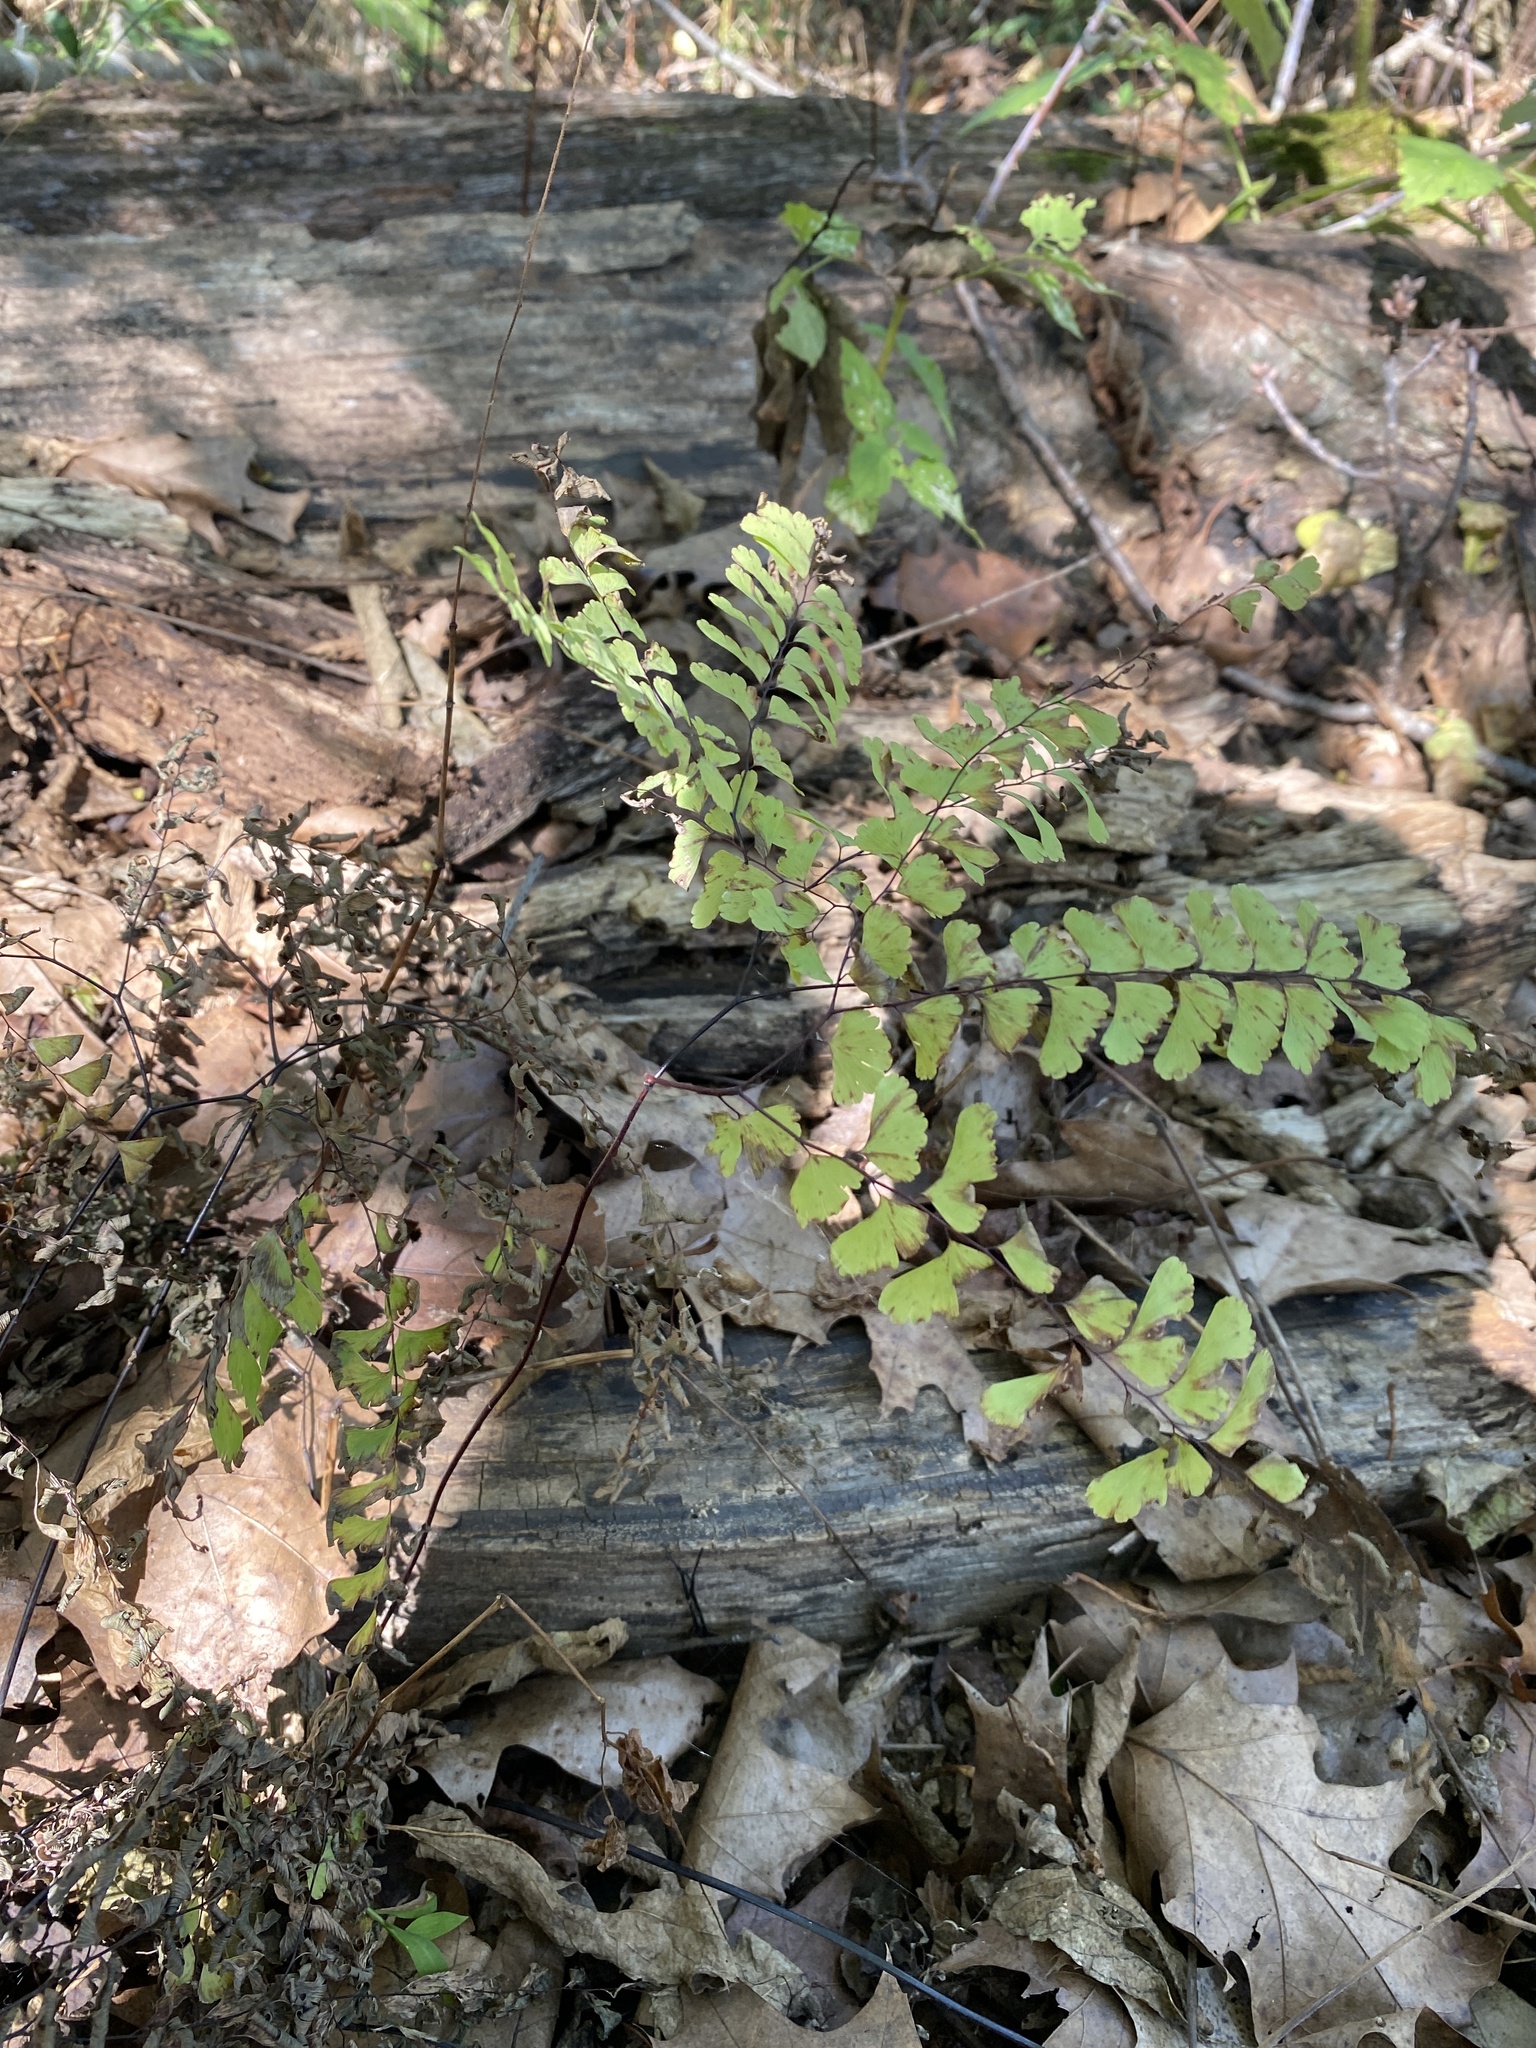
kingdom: Plantae
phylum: Tracheophyta
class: Polypodiopsida
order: Polypodiales
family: Pteridaceae
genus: Adiantum
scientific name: Adiantum pedatum
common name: Five-finger fern
